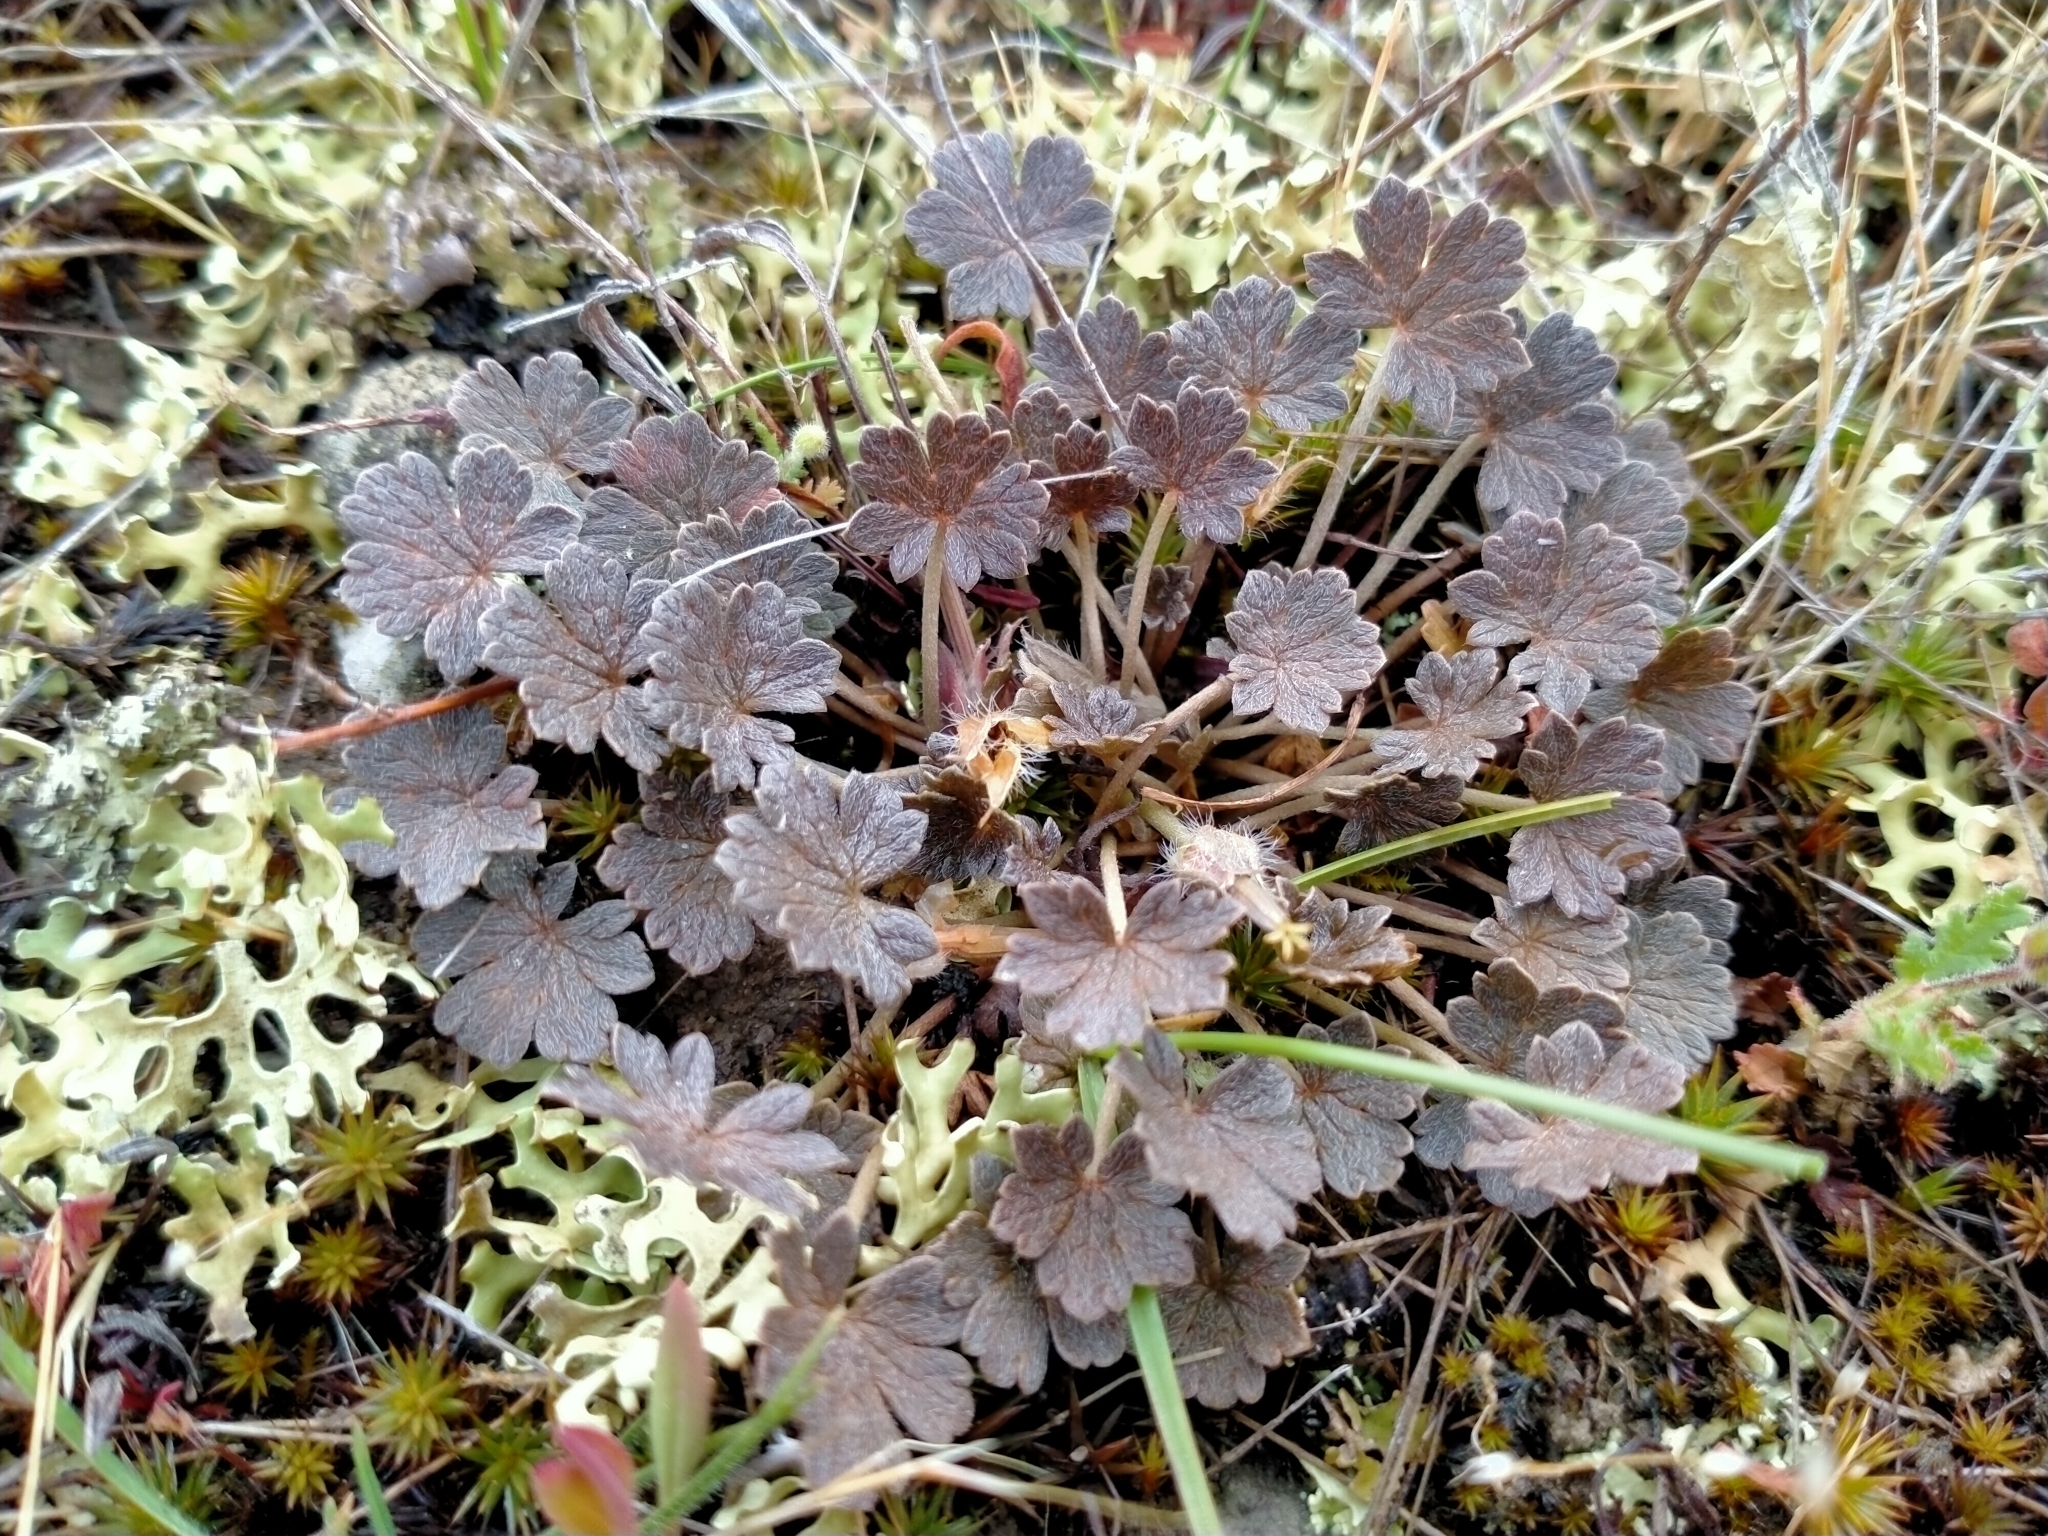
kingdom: Plantae
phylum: Tracheophyta
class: Magnoliopsida
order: Geraniales
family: Geraniaceae
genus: Geranium
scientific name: Geranium brevicaule
